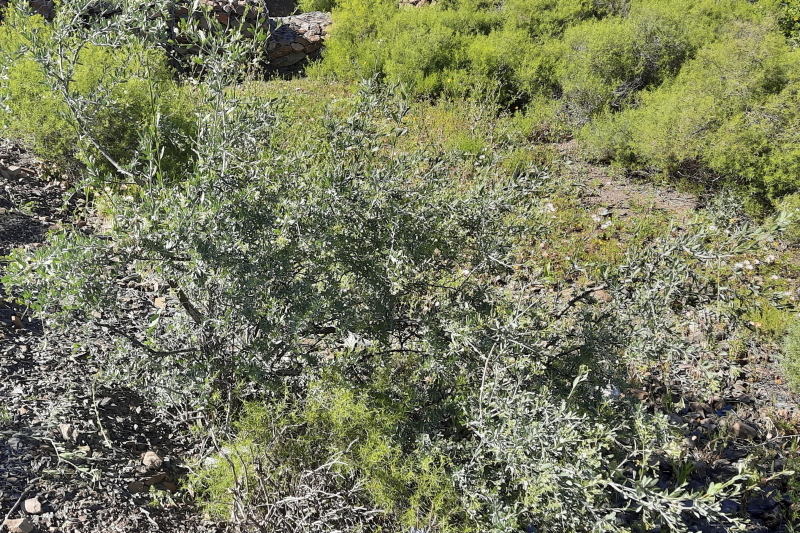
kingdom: Plantae
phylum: Tracheophyta
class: Magnoliopsida
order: Solanales
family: Montiniaceae
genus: Montinia
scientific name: Montinia caryophyllacea
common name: Wild clove-bush
